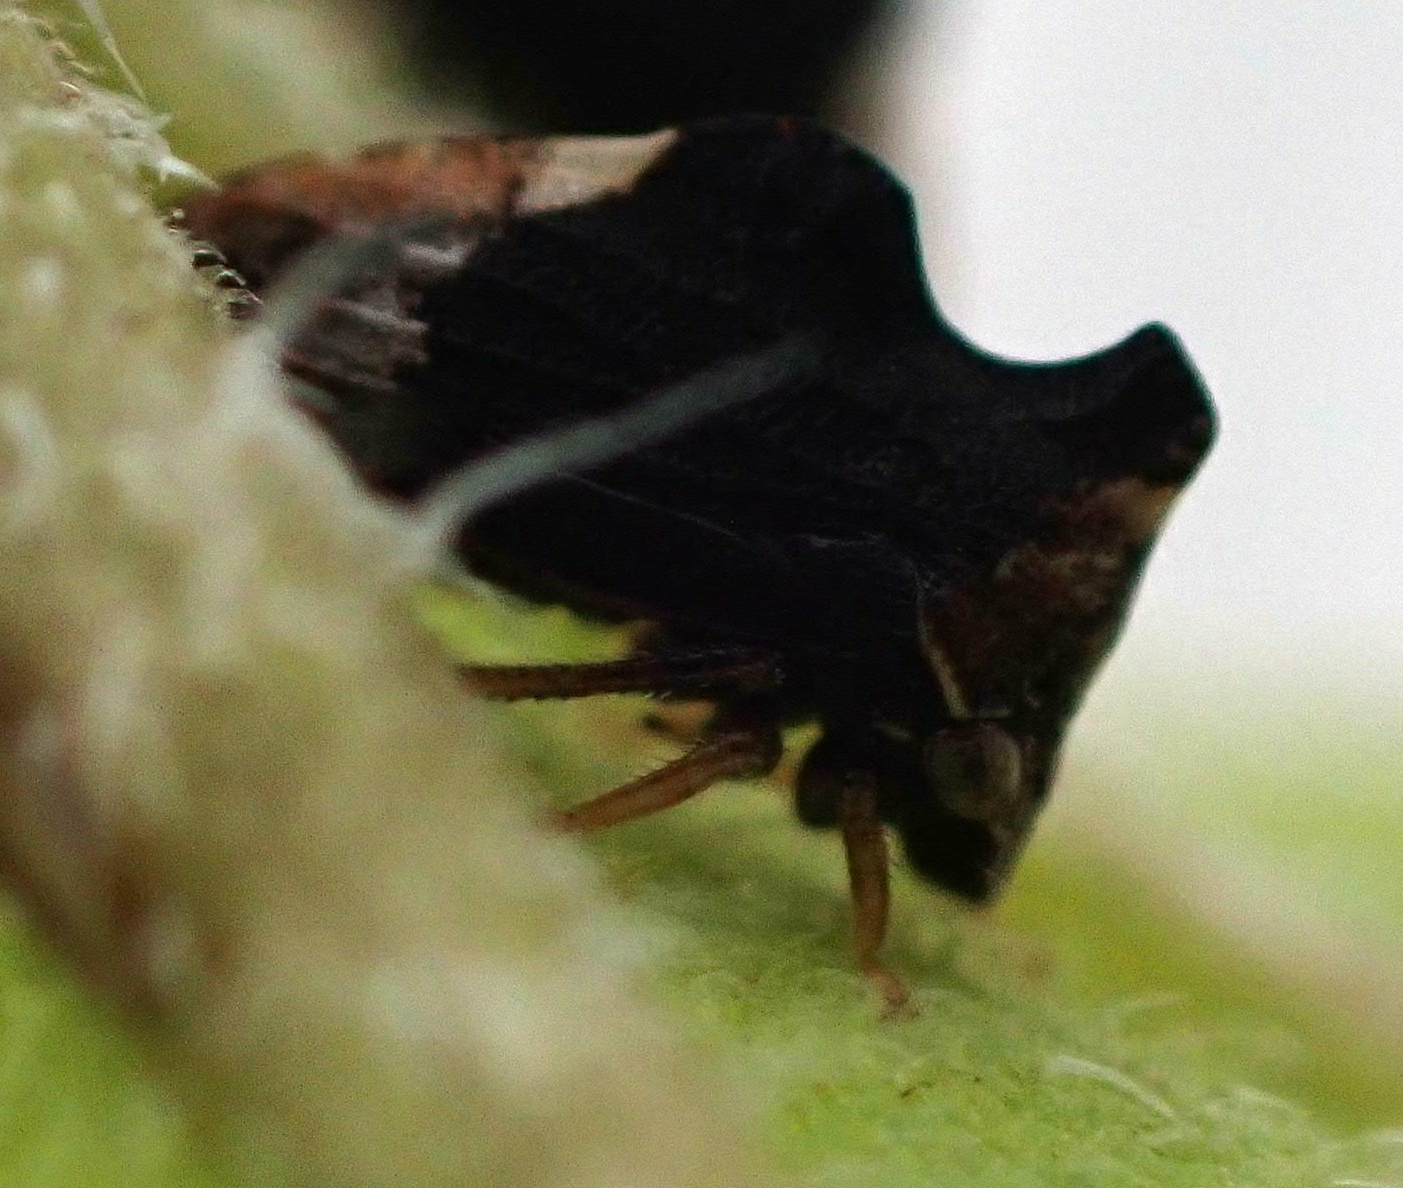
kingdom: Animalia
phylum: Arthropoda
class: Insecta
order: Hemiptera
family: Membracidae
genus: Entylia
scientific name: Entylia carinata
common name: Keeled treehopper
